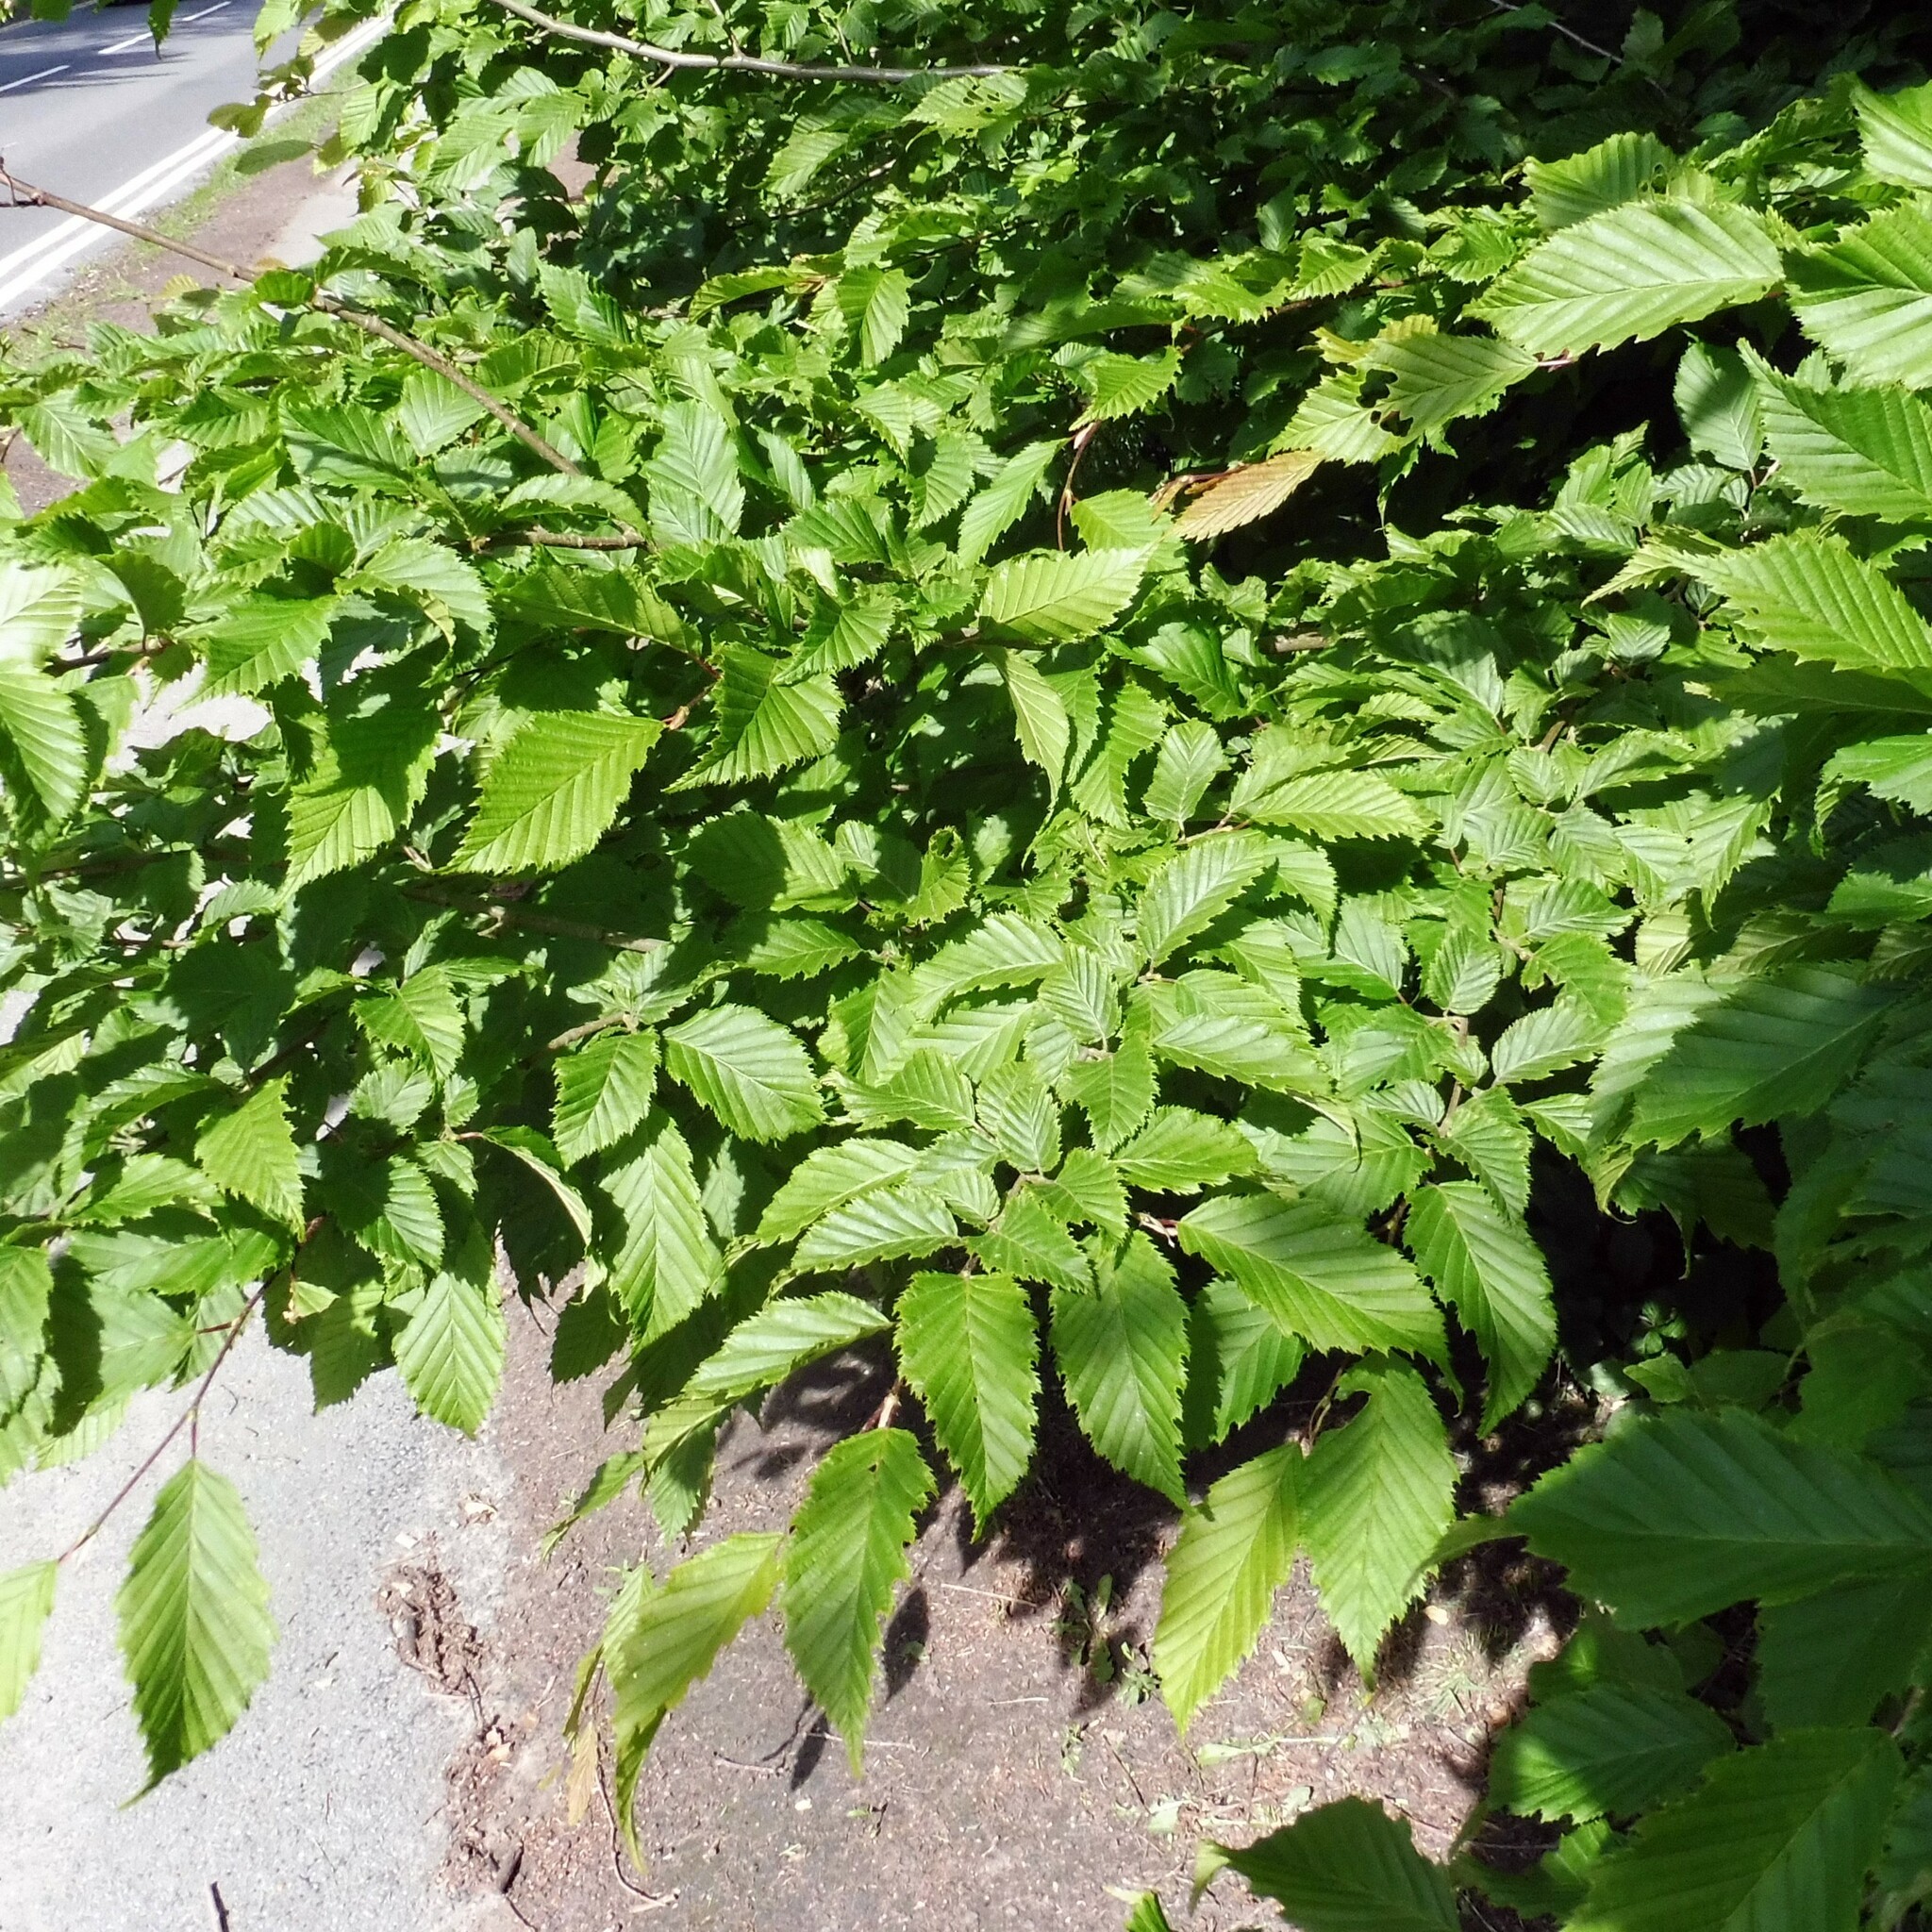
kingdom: Plantae
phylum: Tracheophyta
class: Magnoliopsida
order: Fagales
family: Betulaceae
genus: Carpinus
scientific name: Carpinus betulus
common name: Hornbeam
